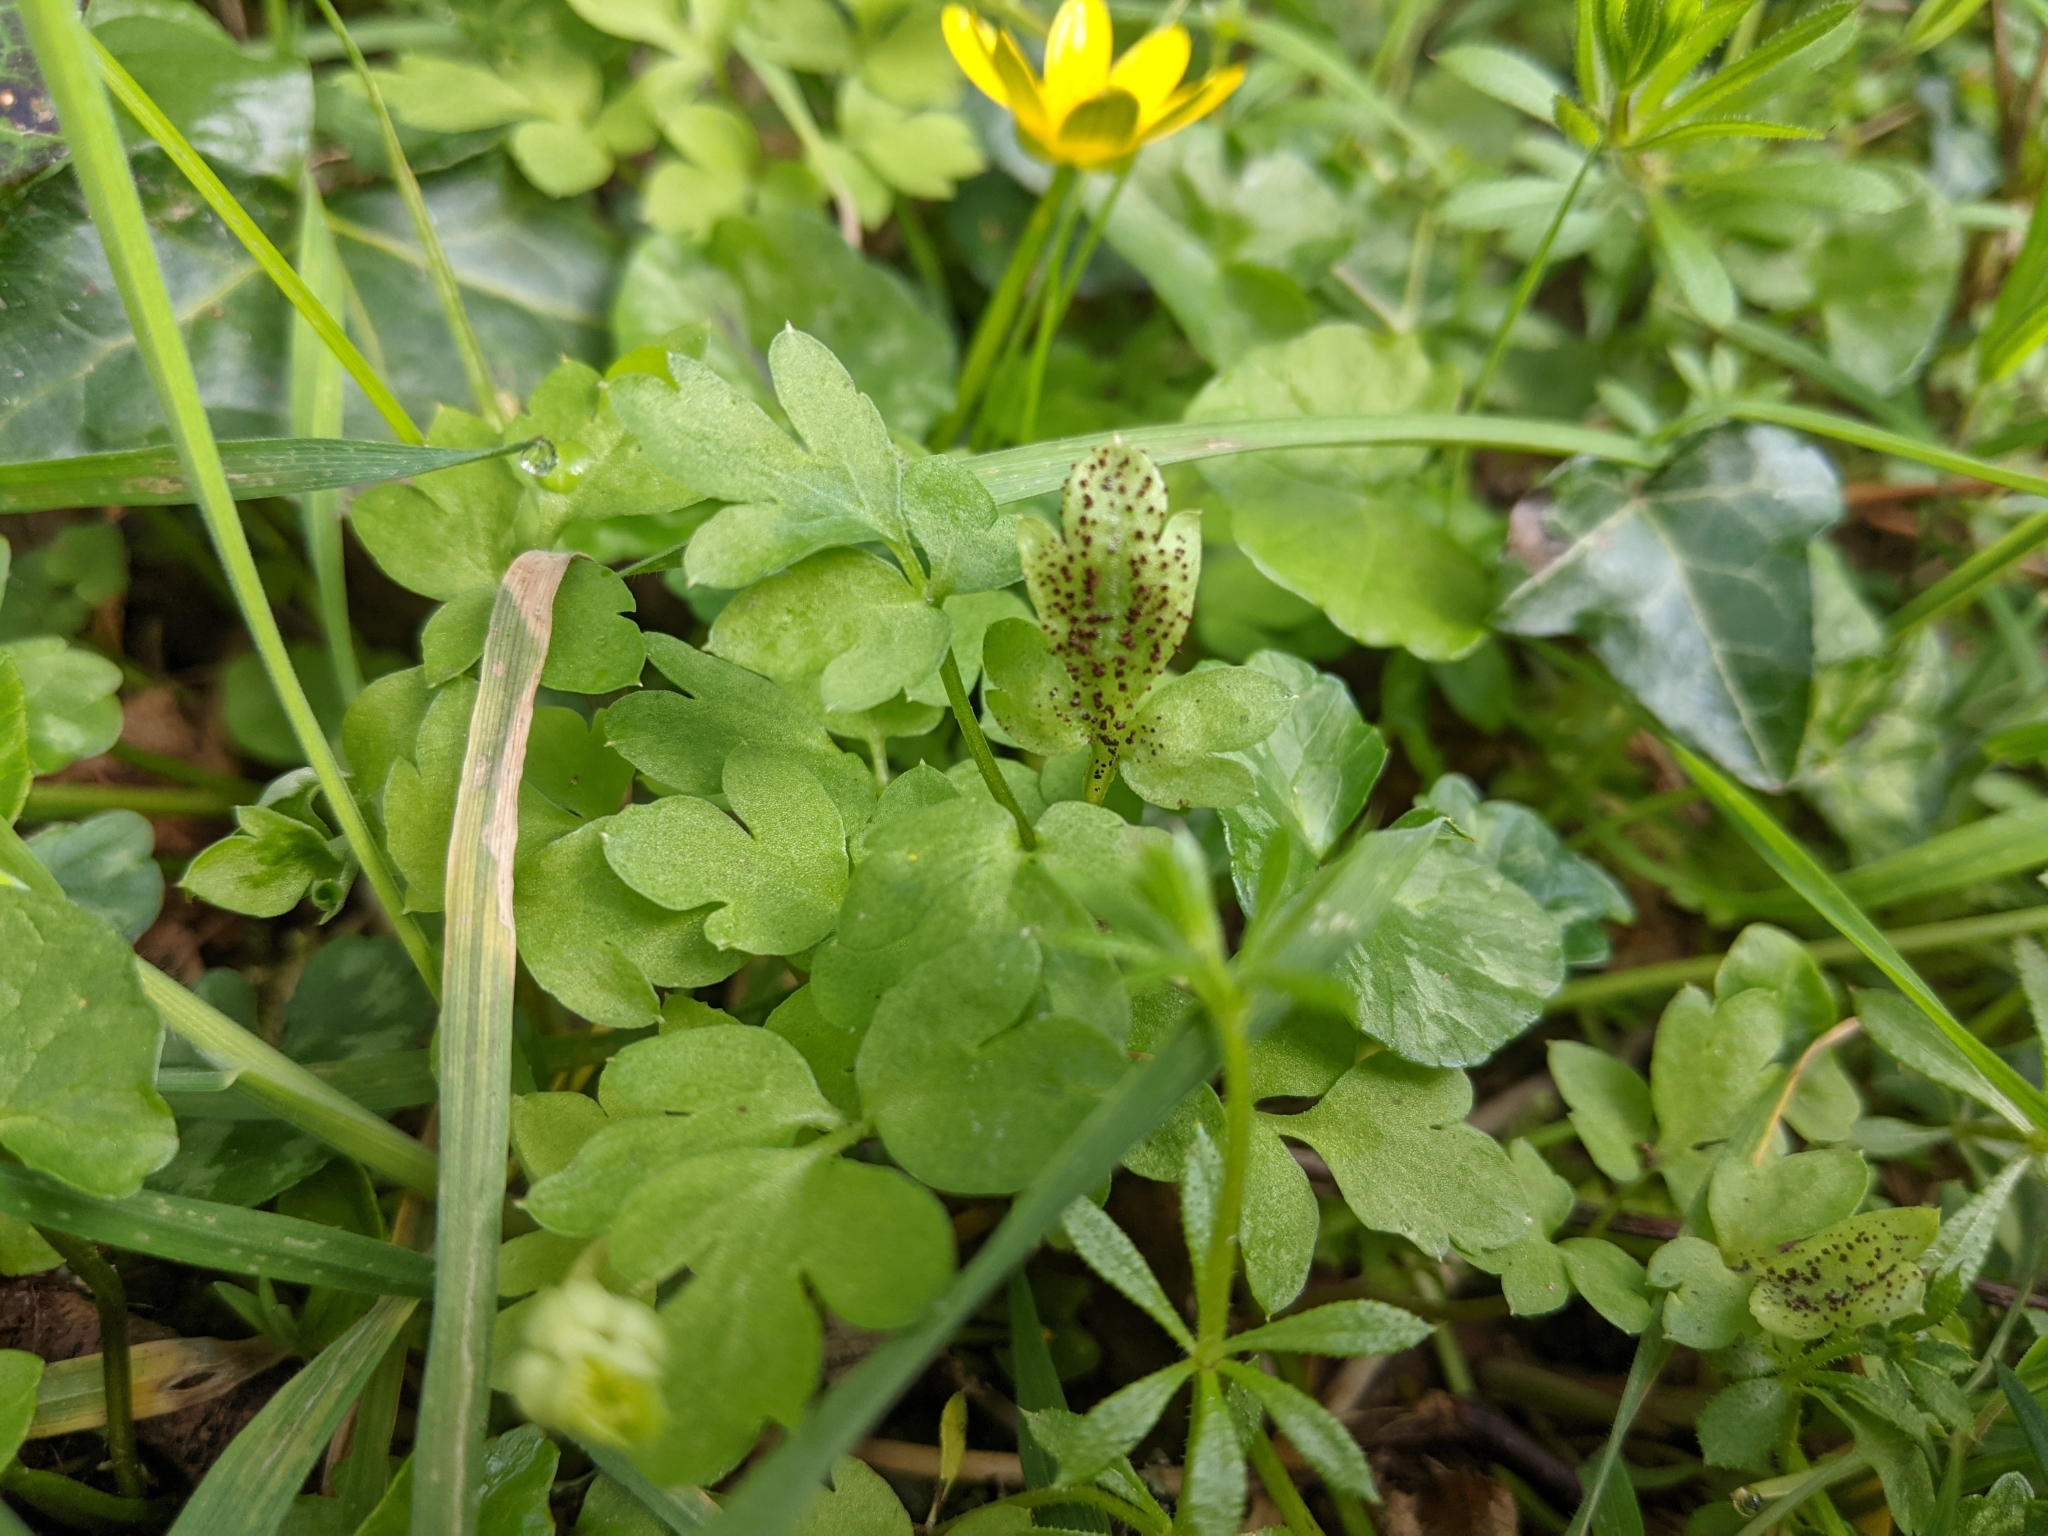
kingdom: Fungi
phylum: Basidiomycota
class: Pucciniomycetes
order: Pucciniales
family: Pucciniaceae
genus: Puccinia
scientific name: Puccinia adoxae
